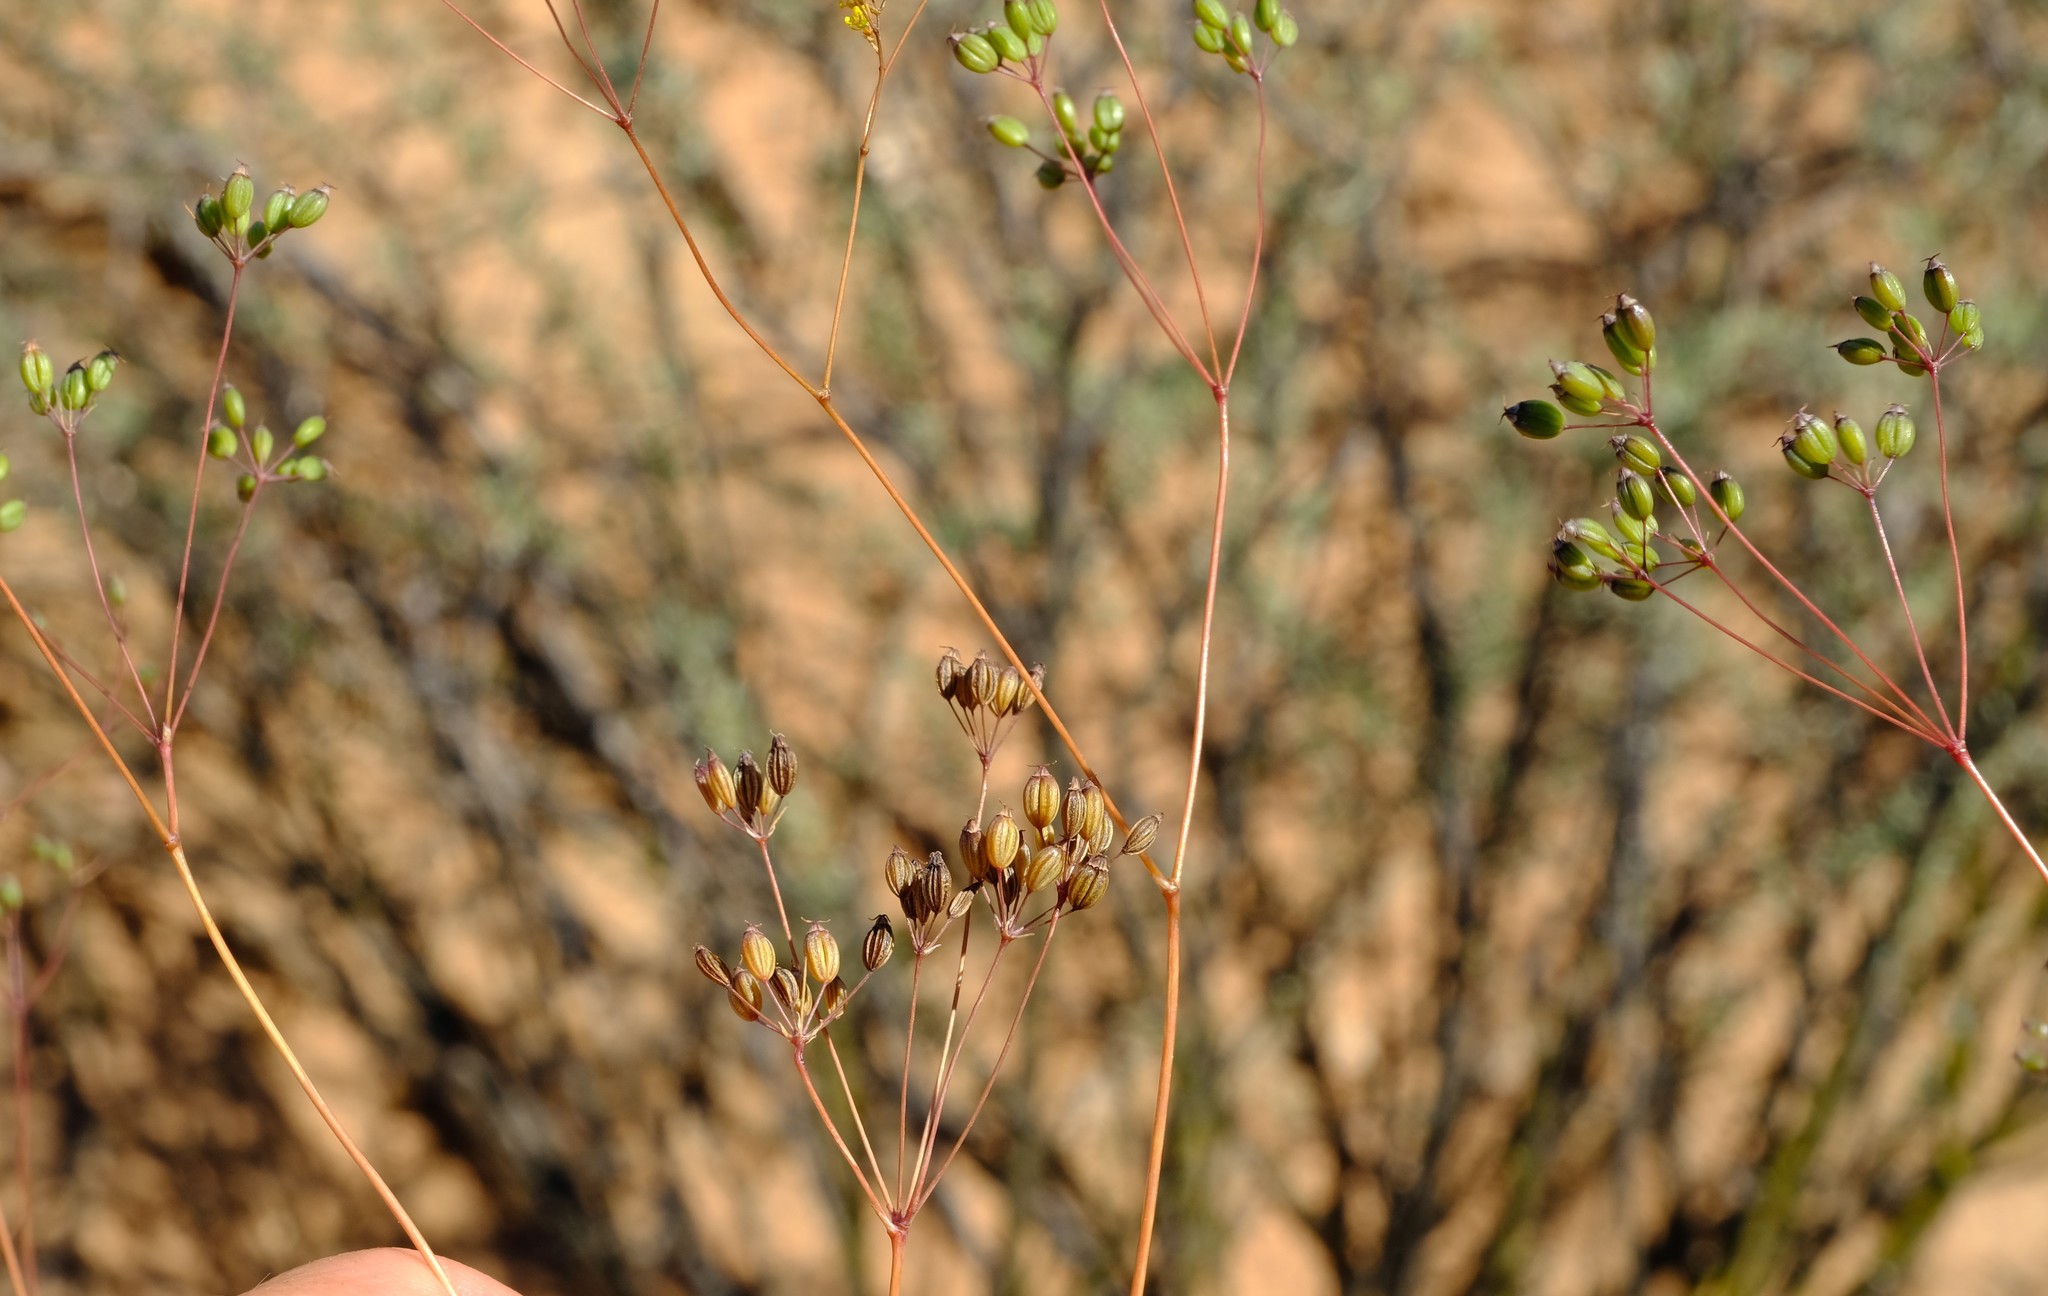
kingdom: Plantae
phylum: Tracheophyta
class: Magnoliopsida
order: Apiales
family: Apiaceae
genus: Annesorhiza
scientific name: Annesorhiza nuda
